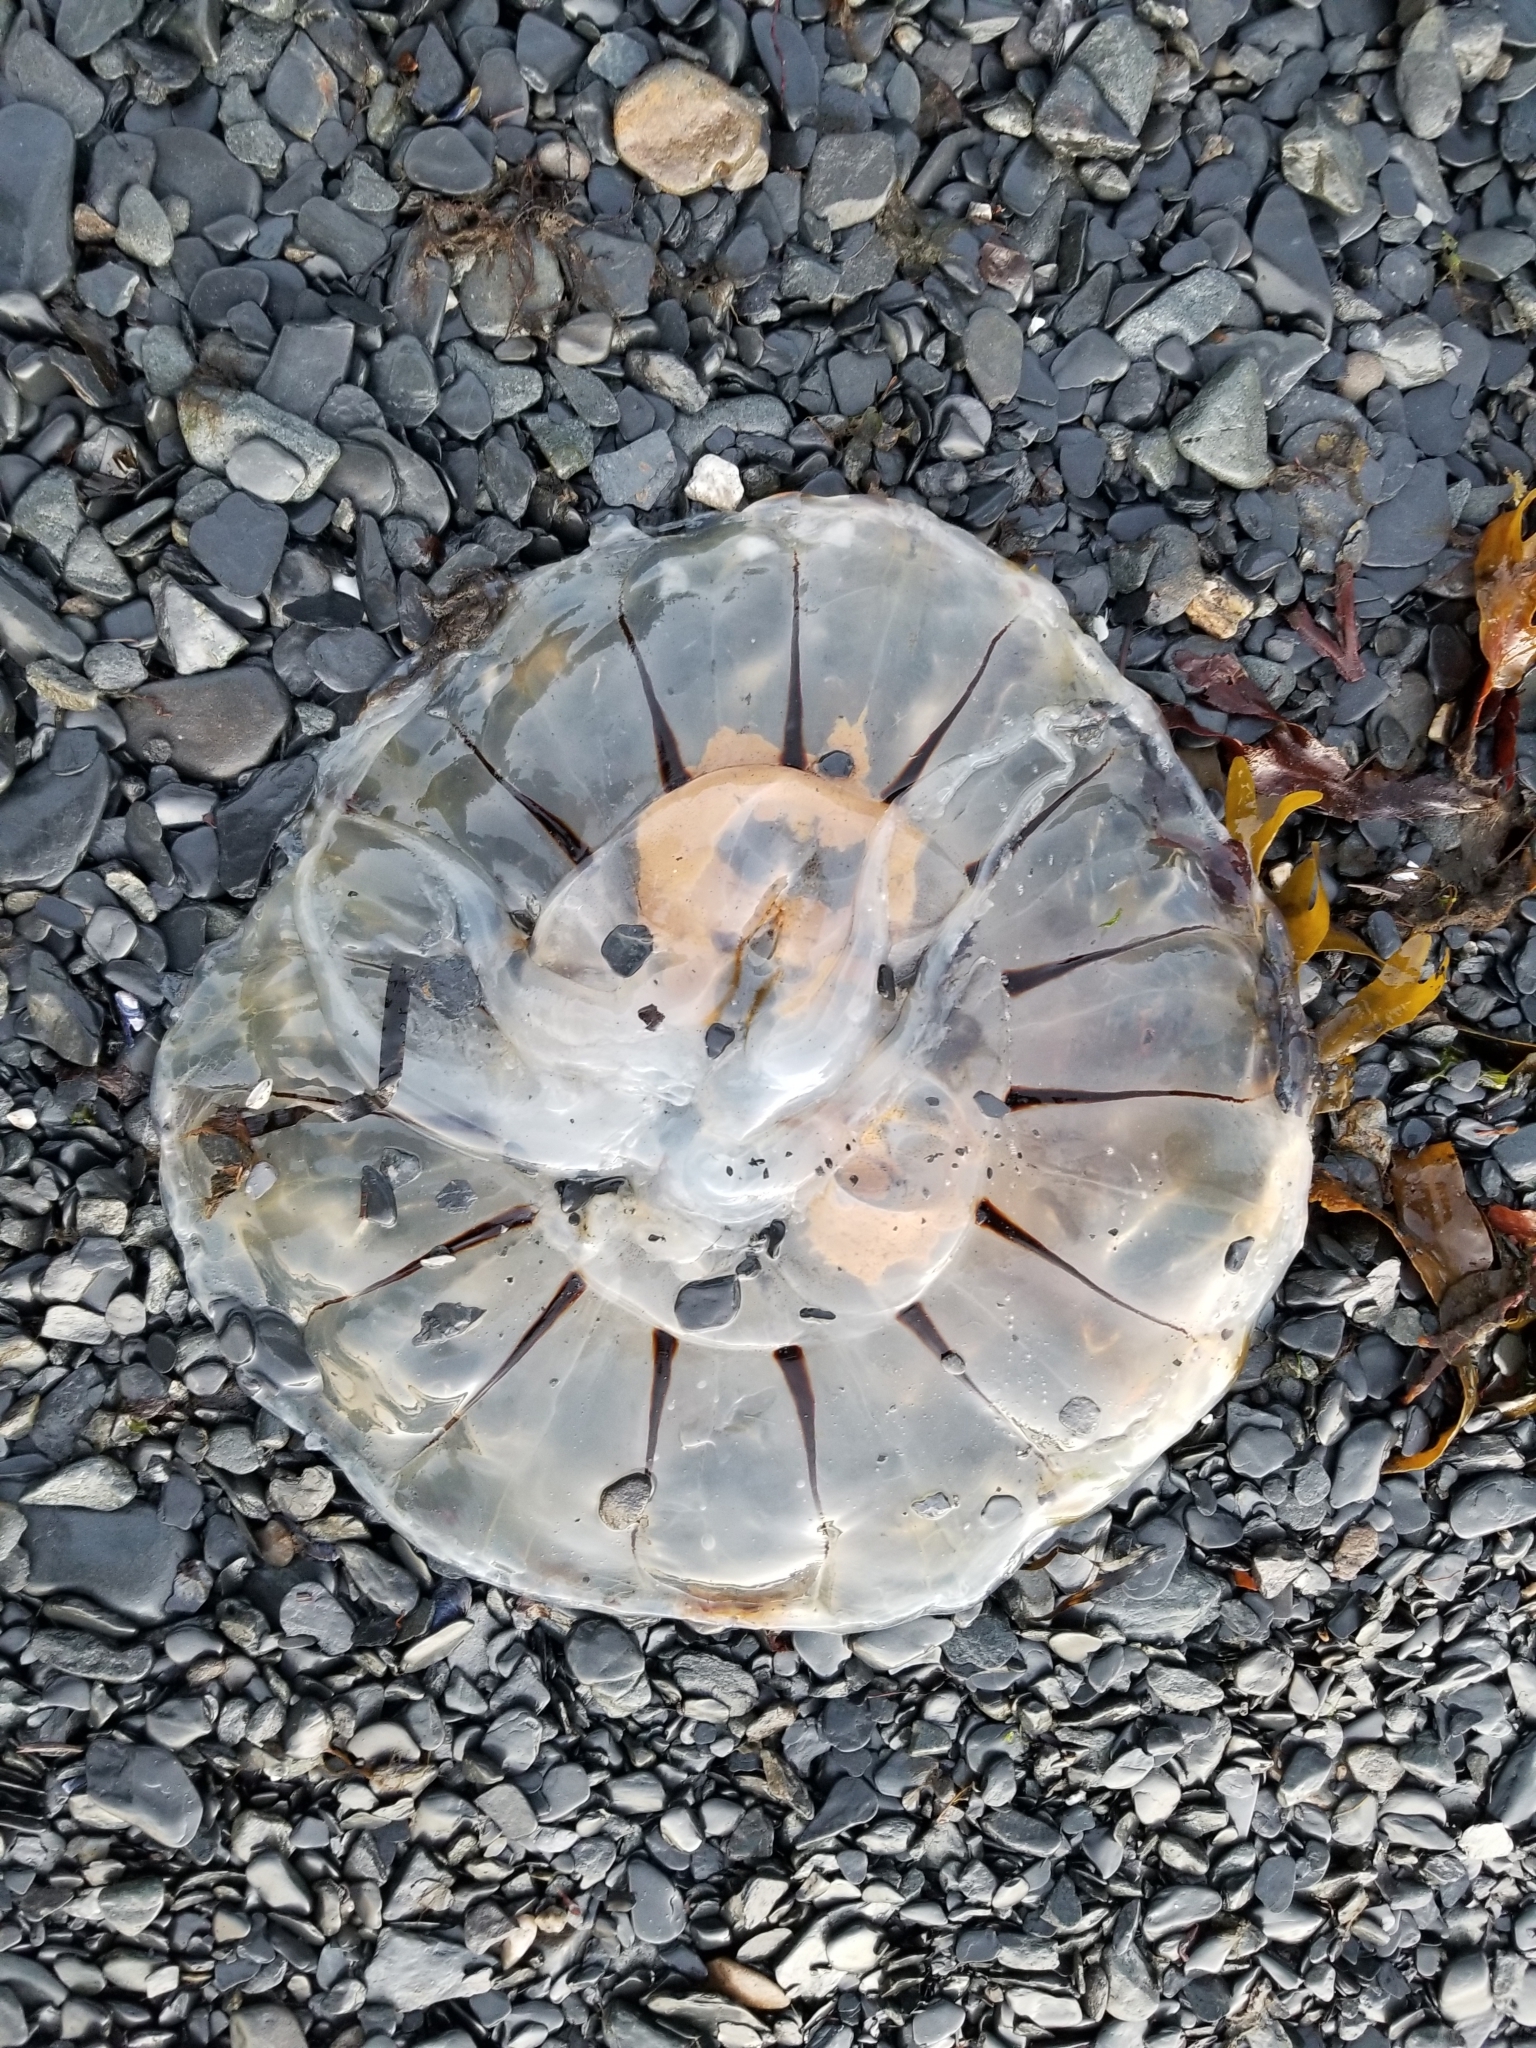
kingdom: Animalia
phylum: Cnidaria
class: Scyphozoa
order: Semaeostomeae
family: Pelagiidae
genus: Chrysaora
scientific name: Chrysaora melanaster
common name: Northern sea nettle
